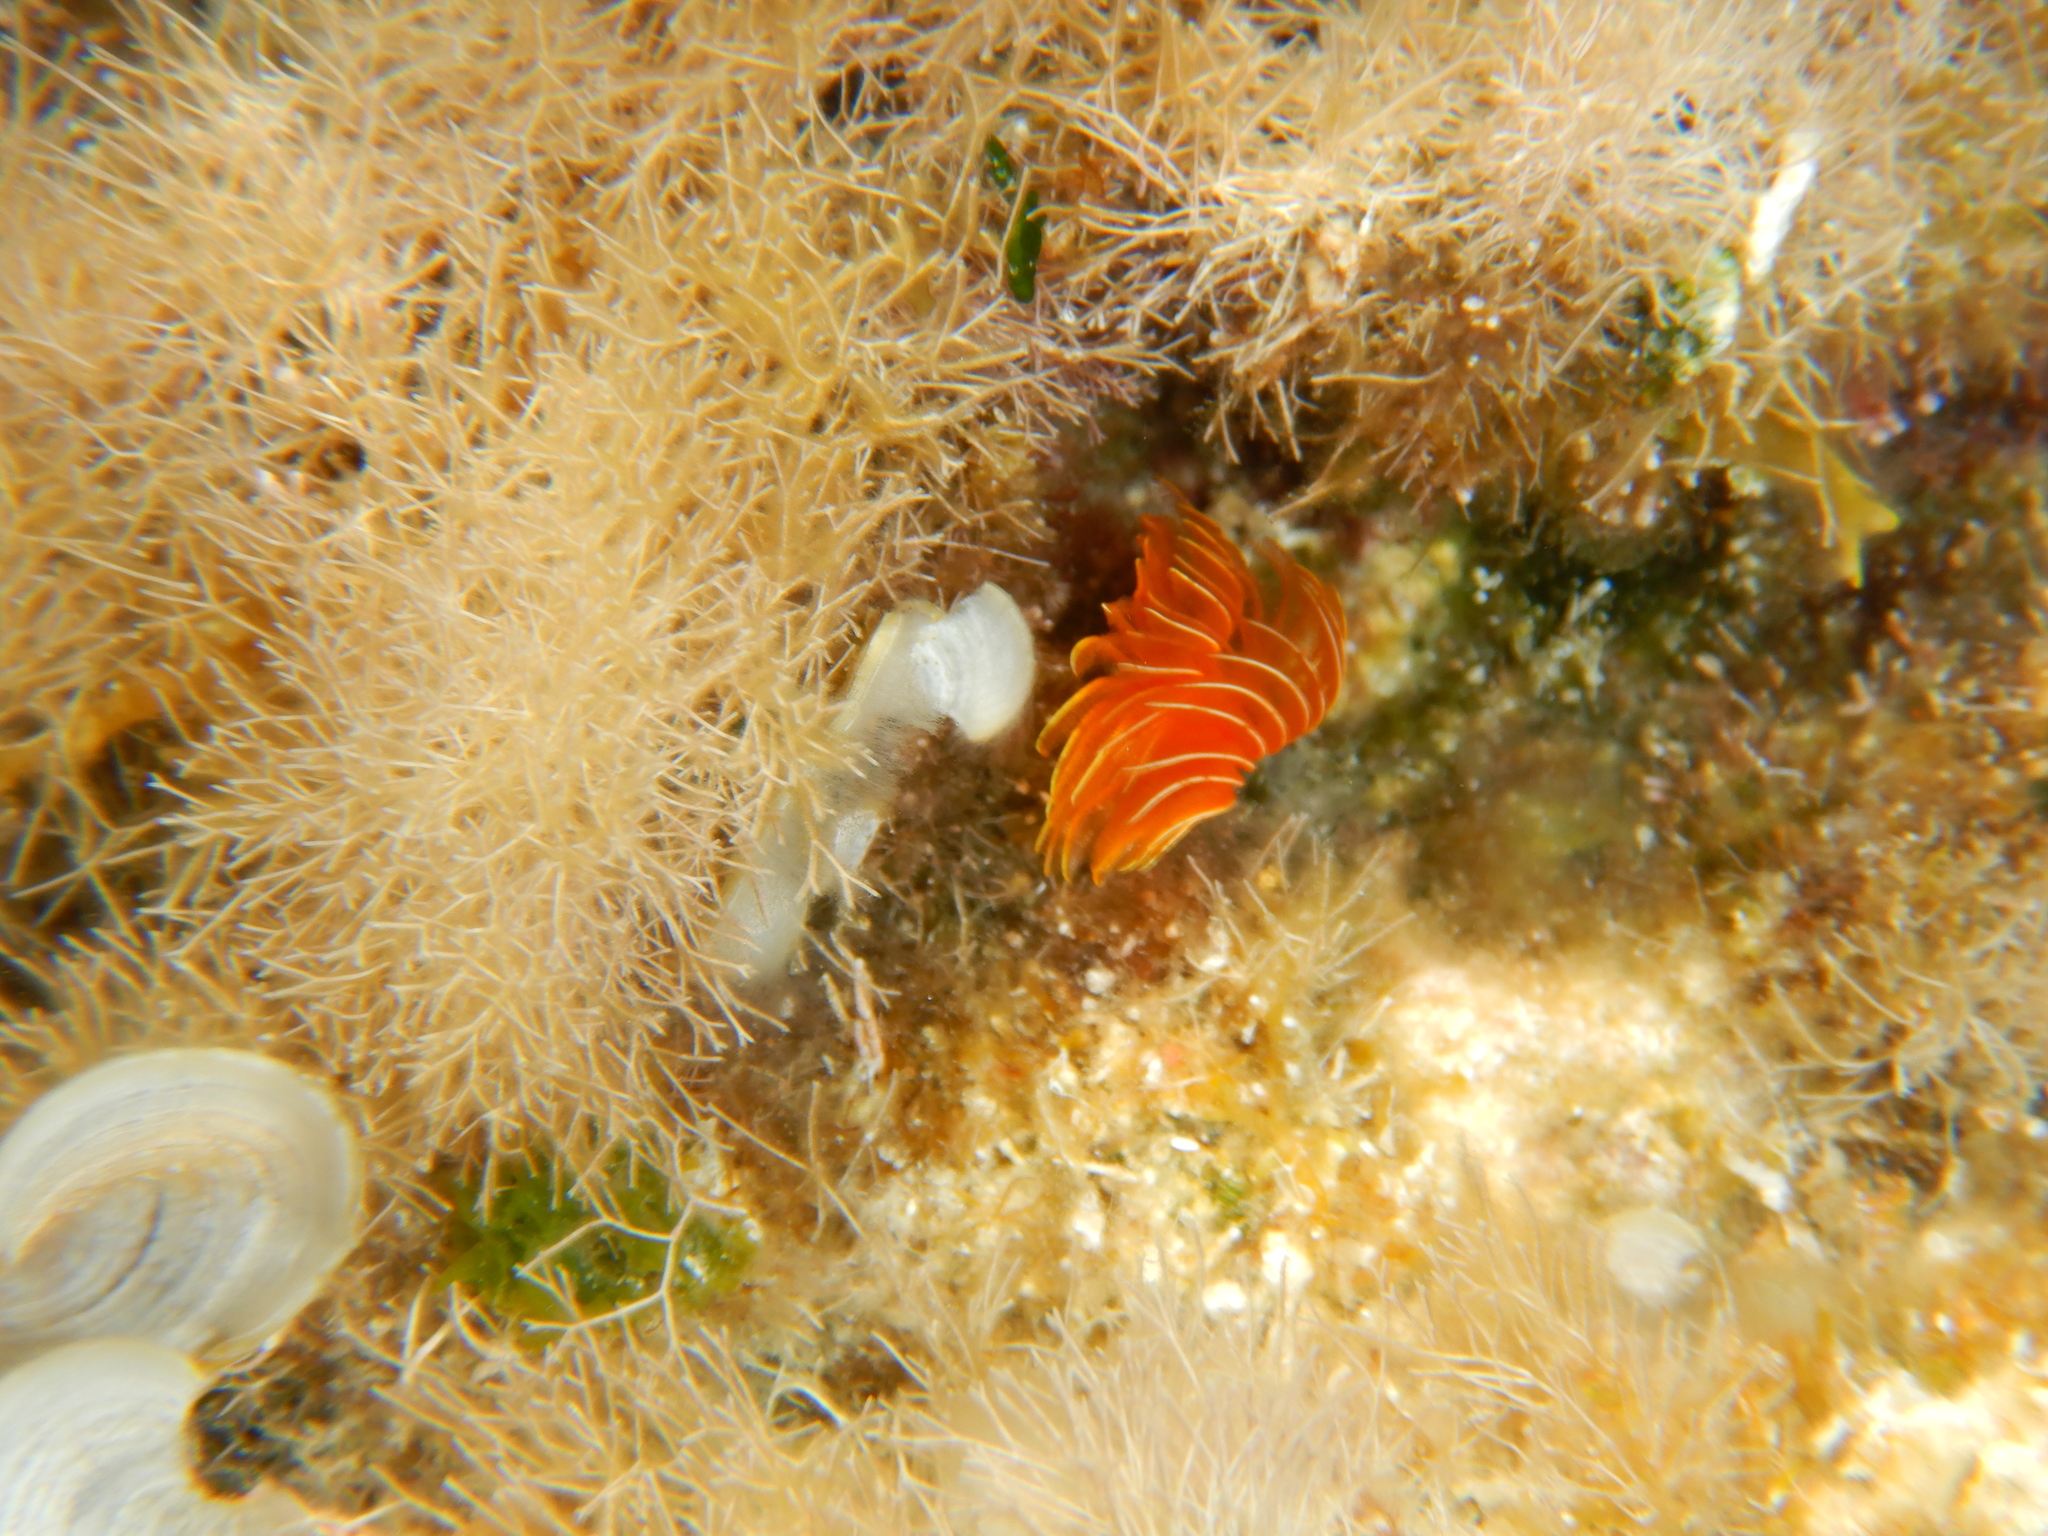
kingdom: Animalia
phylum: Annelida
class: Polychaeta
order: Sabellida
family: Serpulidae
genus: Protula
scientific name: Protula tubularia
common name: Red-spotted horseshoe
